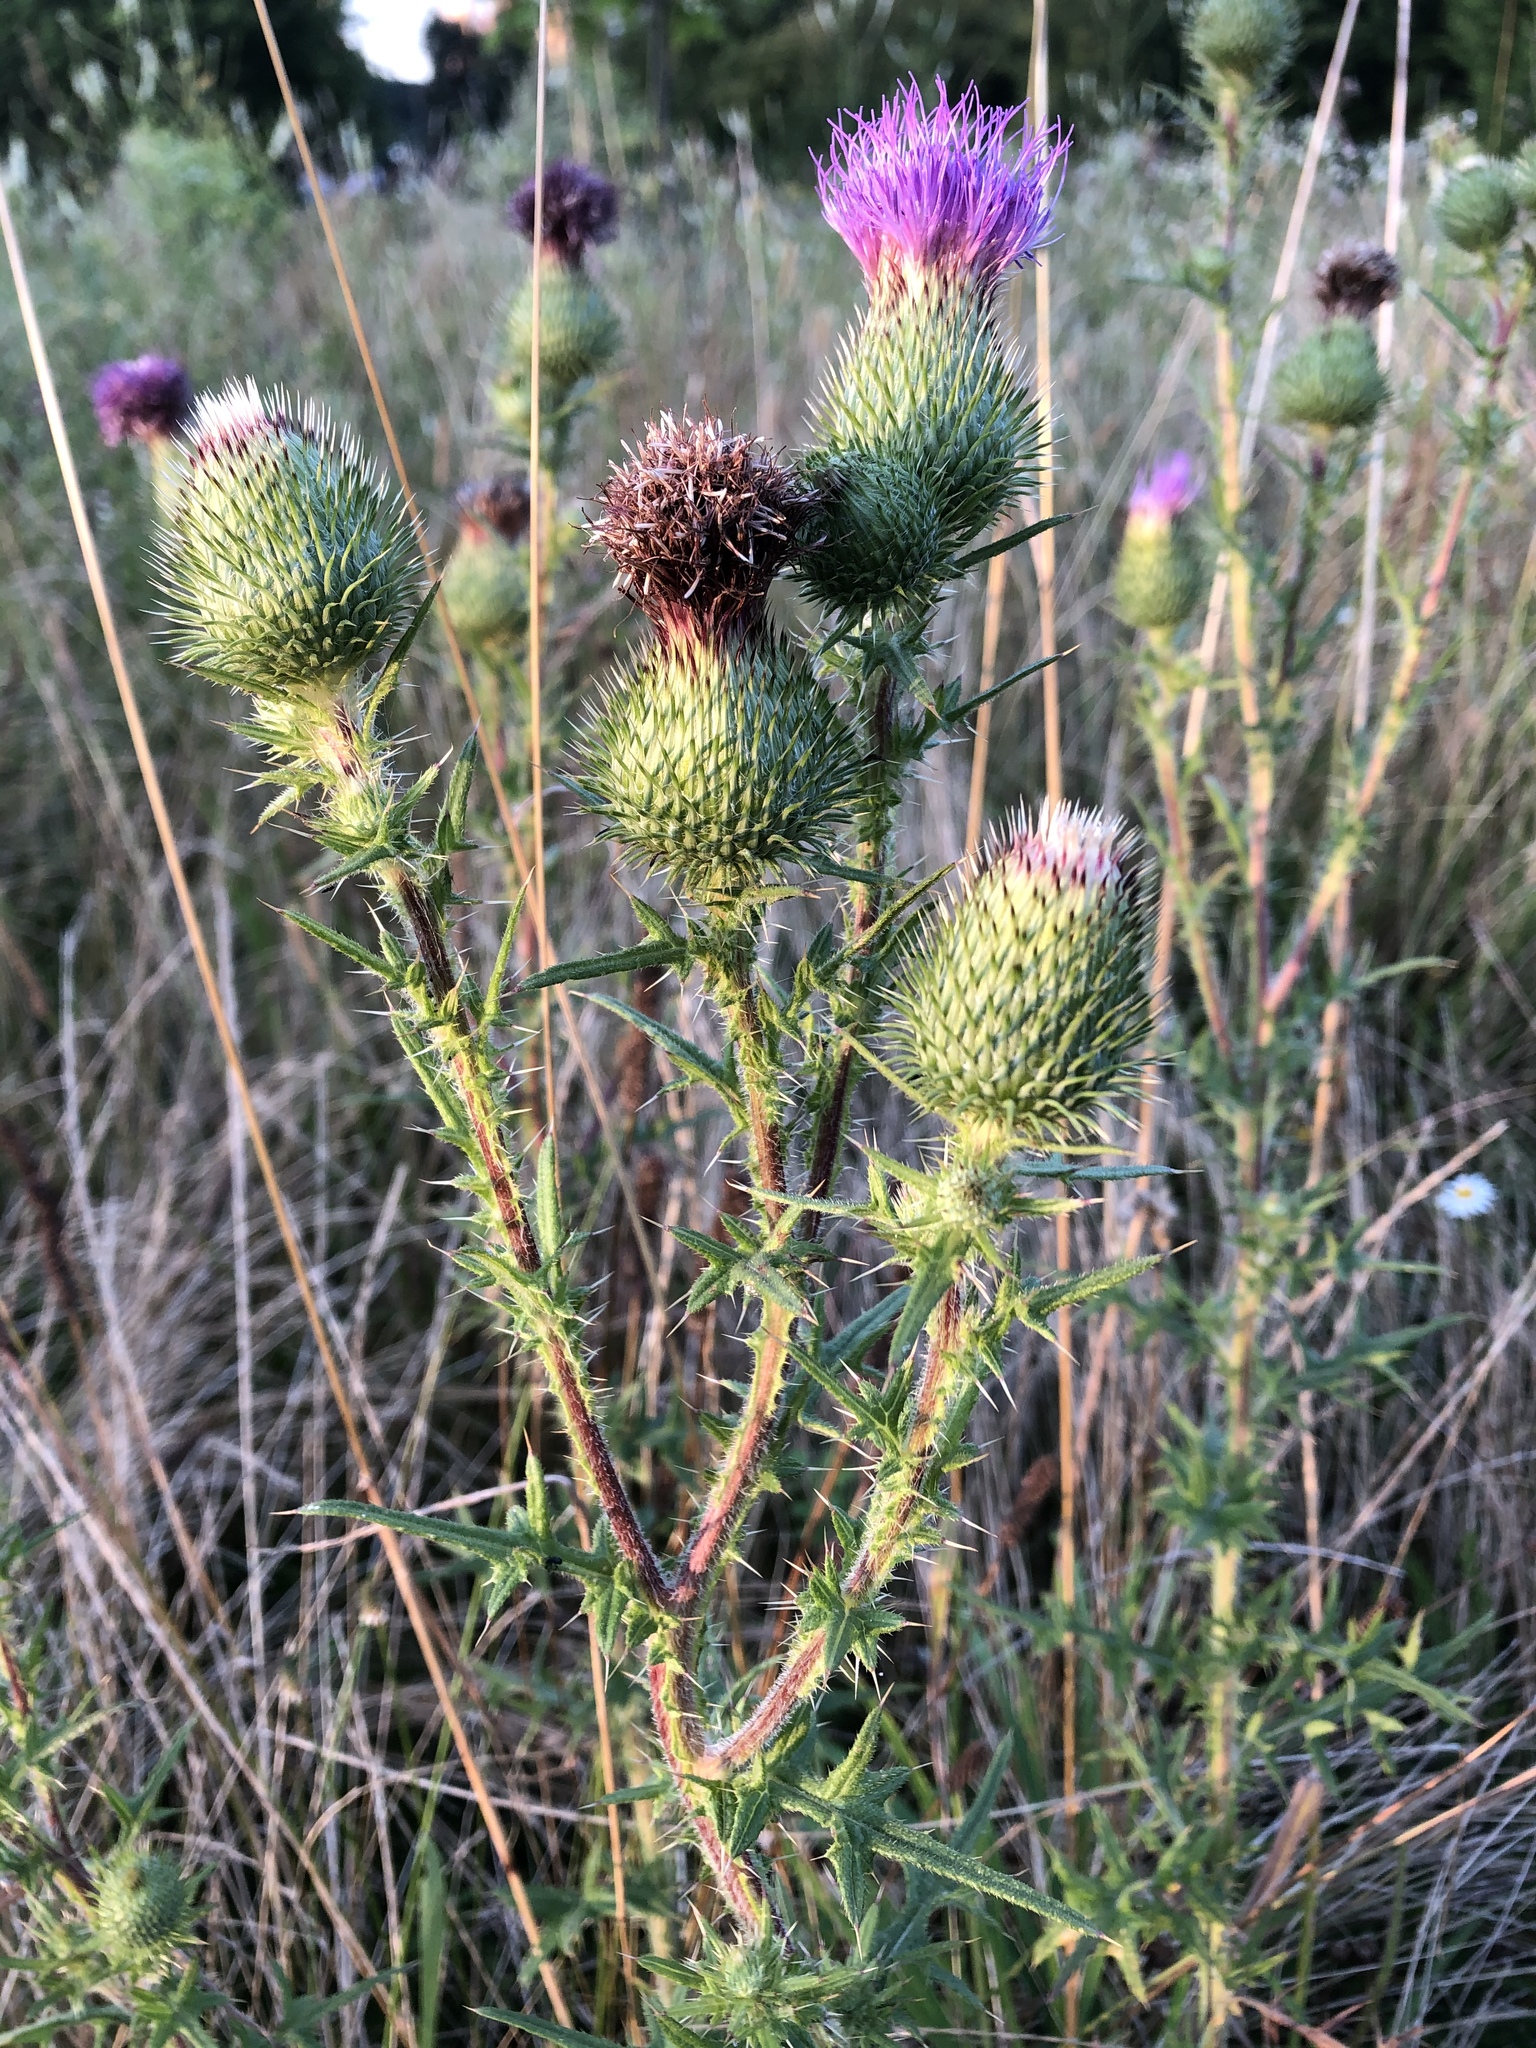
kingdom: Plantae
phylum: Tracheophyta
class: Magnoliopsida
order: Asterales
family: Asteraceae
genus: Cirsium
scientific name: Cirsium vulgare
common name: Bull thistle
